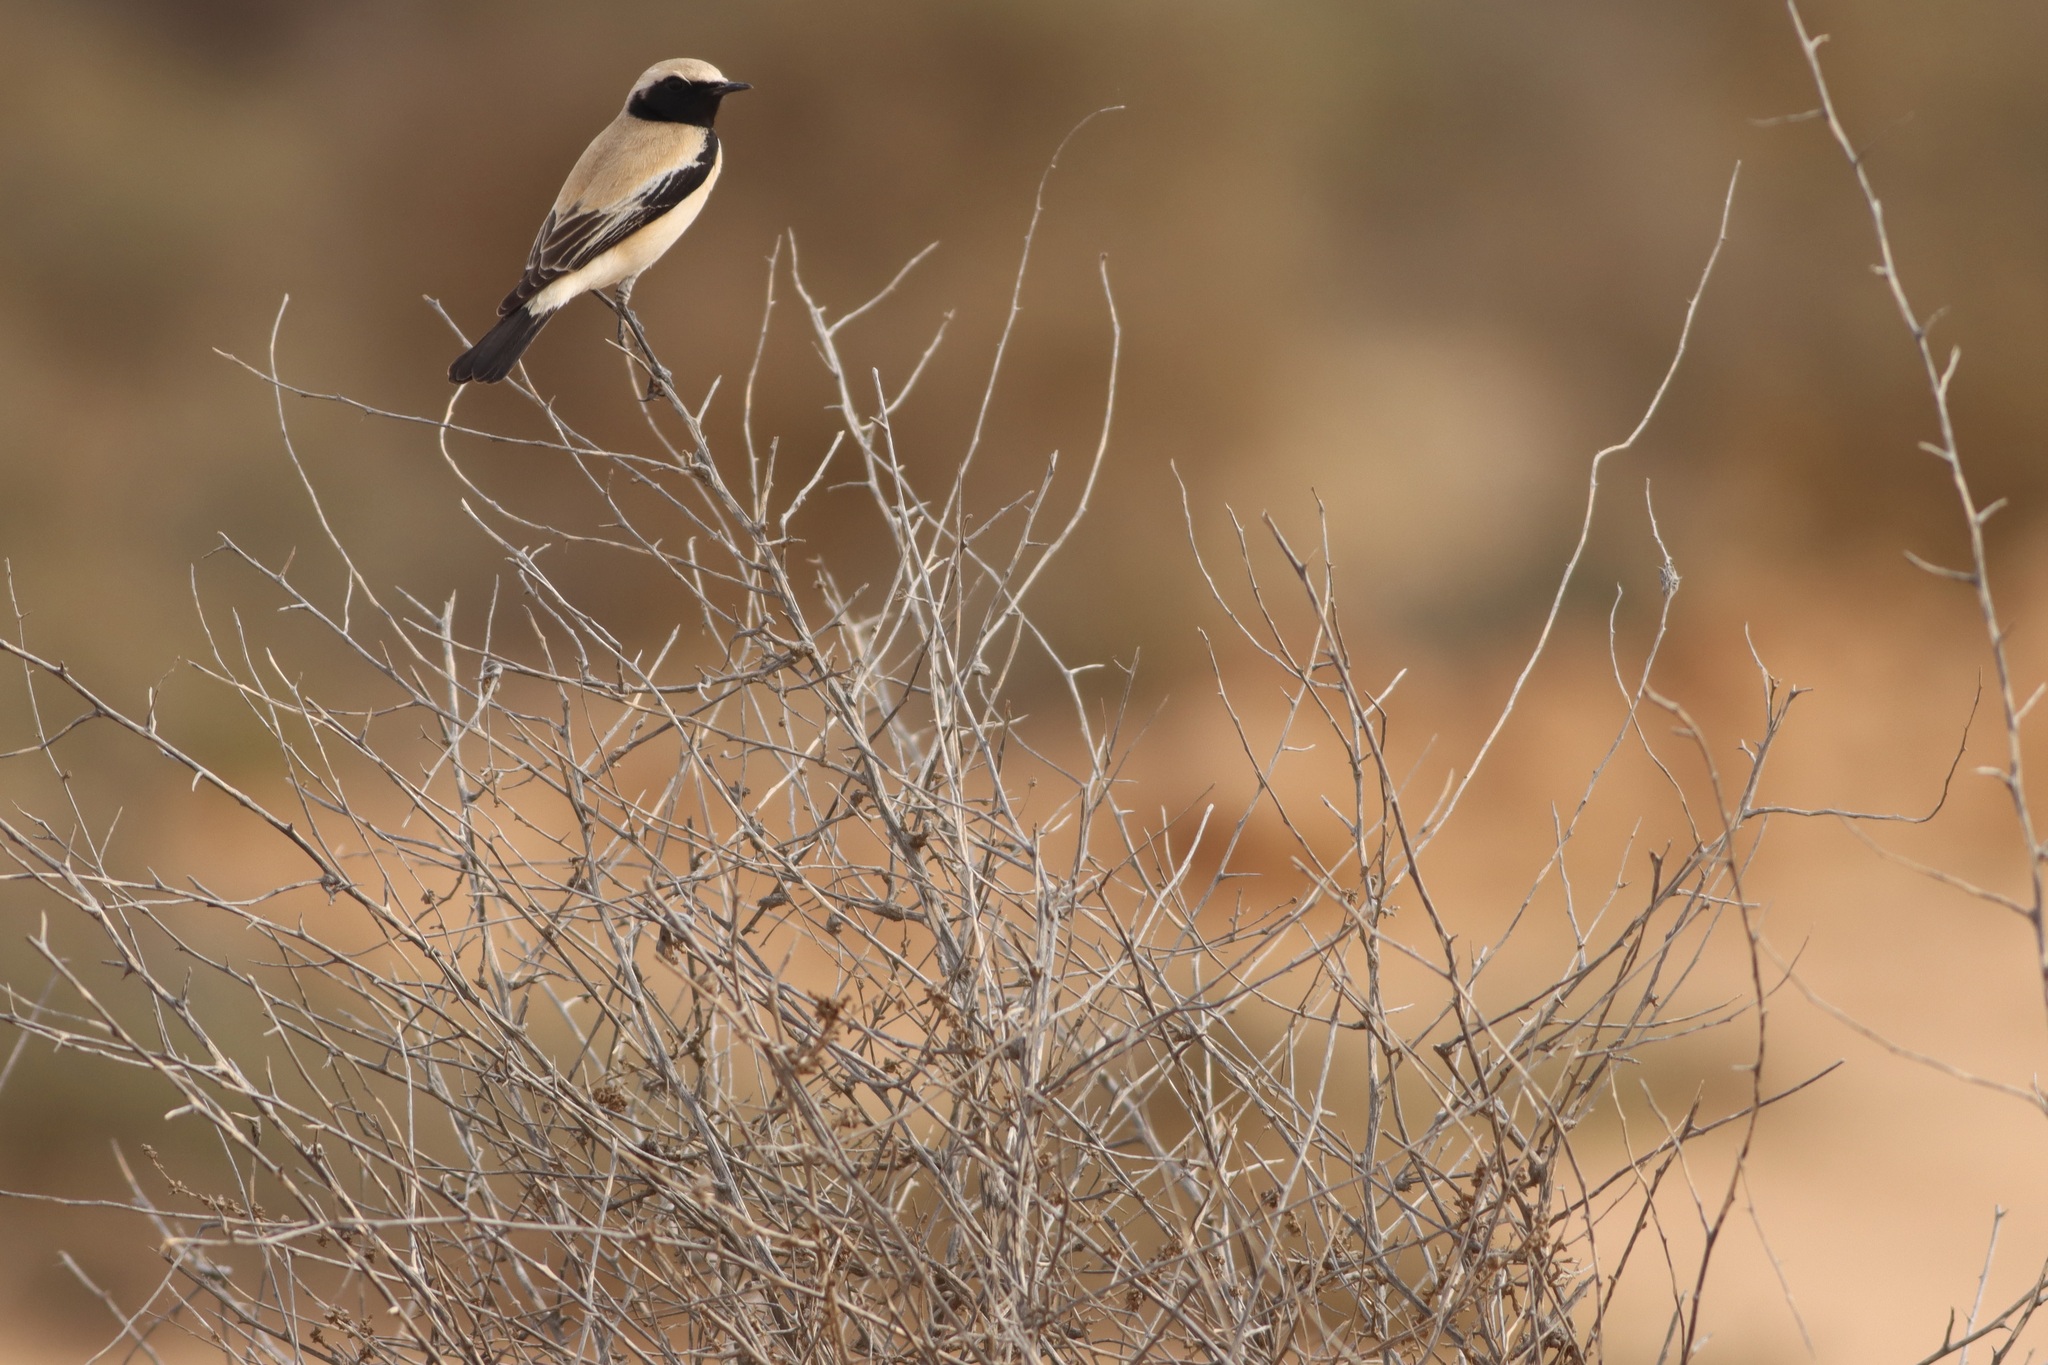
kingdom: Animalia
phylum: Chordata
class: Aves
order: Passeriformes
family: Muscicapidae
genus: Oenanthe
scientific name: Oenanthe deserti
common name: Desert wheatear
